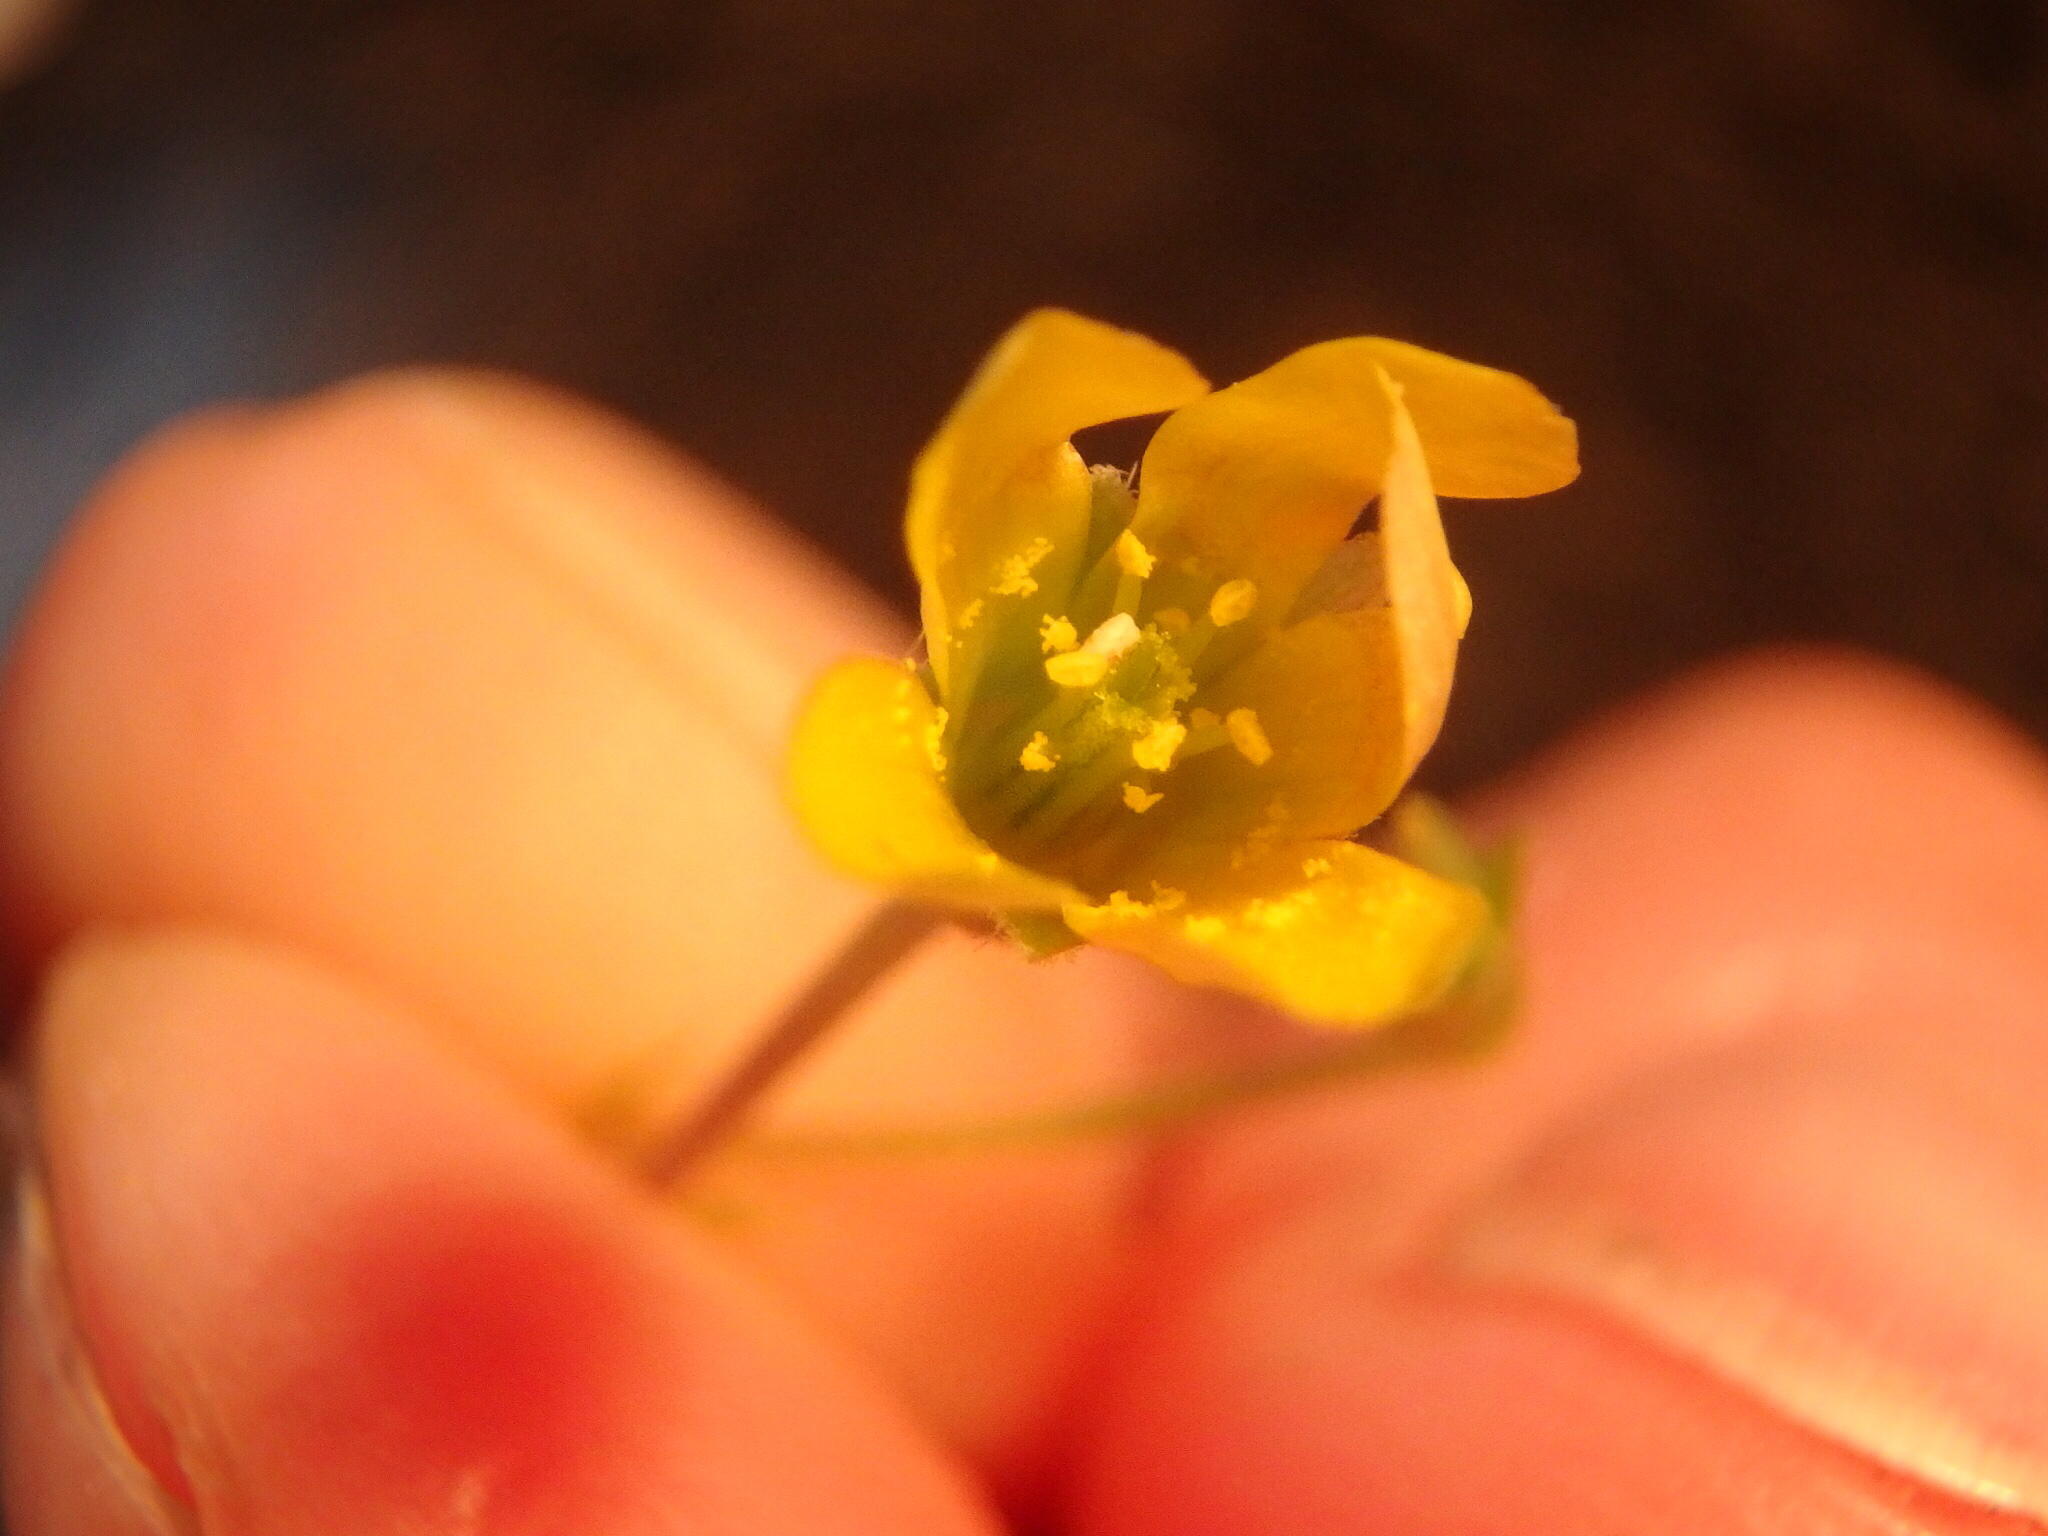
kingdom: Plantae
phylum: Tracheophyta
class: Magnoliopsida
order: Oxalidales
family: Oxalidaceae
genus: Oxalis
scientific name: Oxalis corniculata
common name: Procumbent yellow-sorrel
